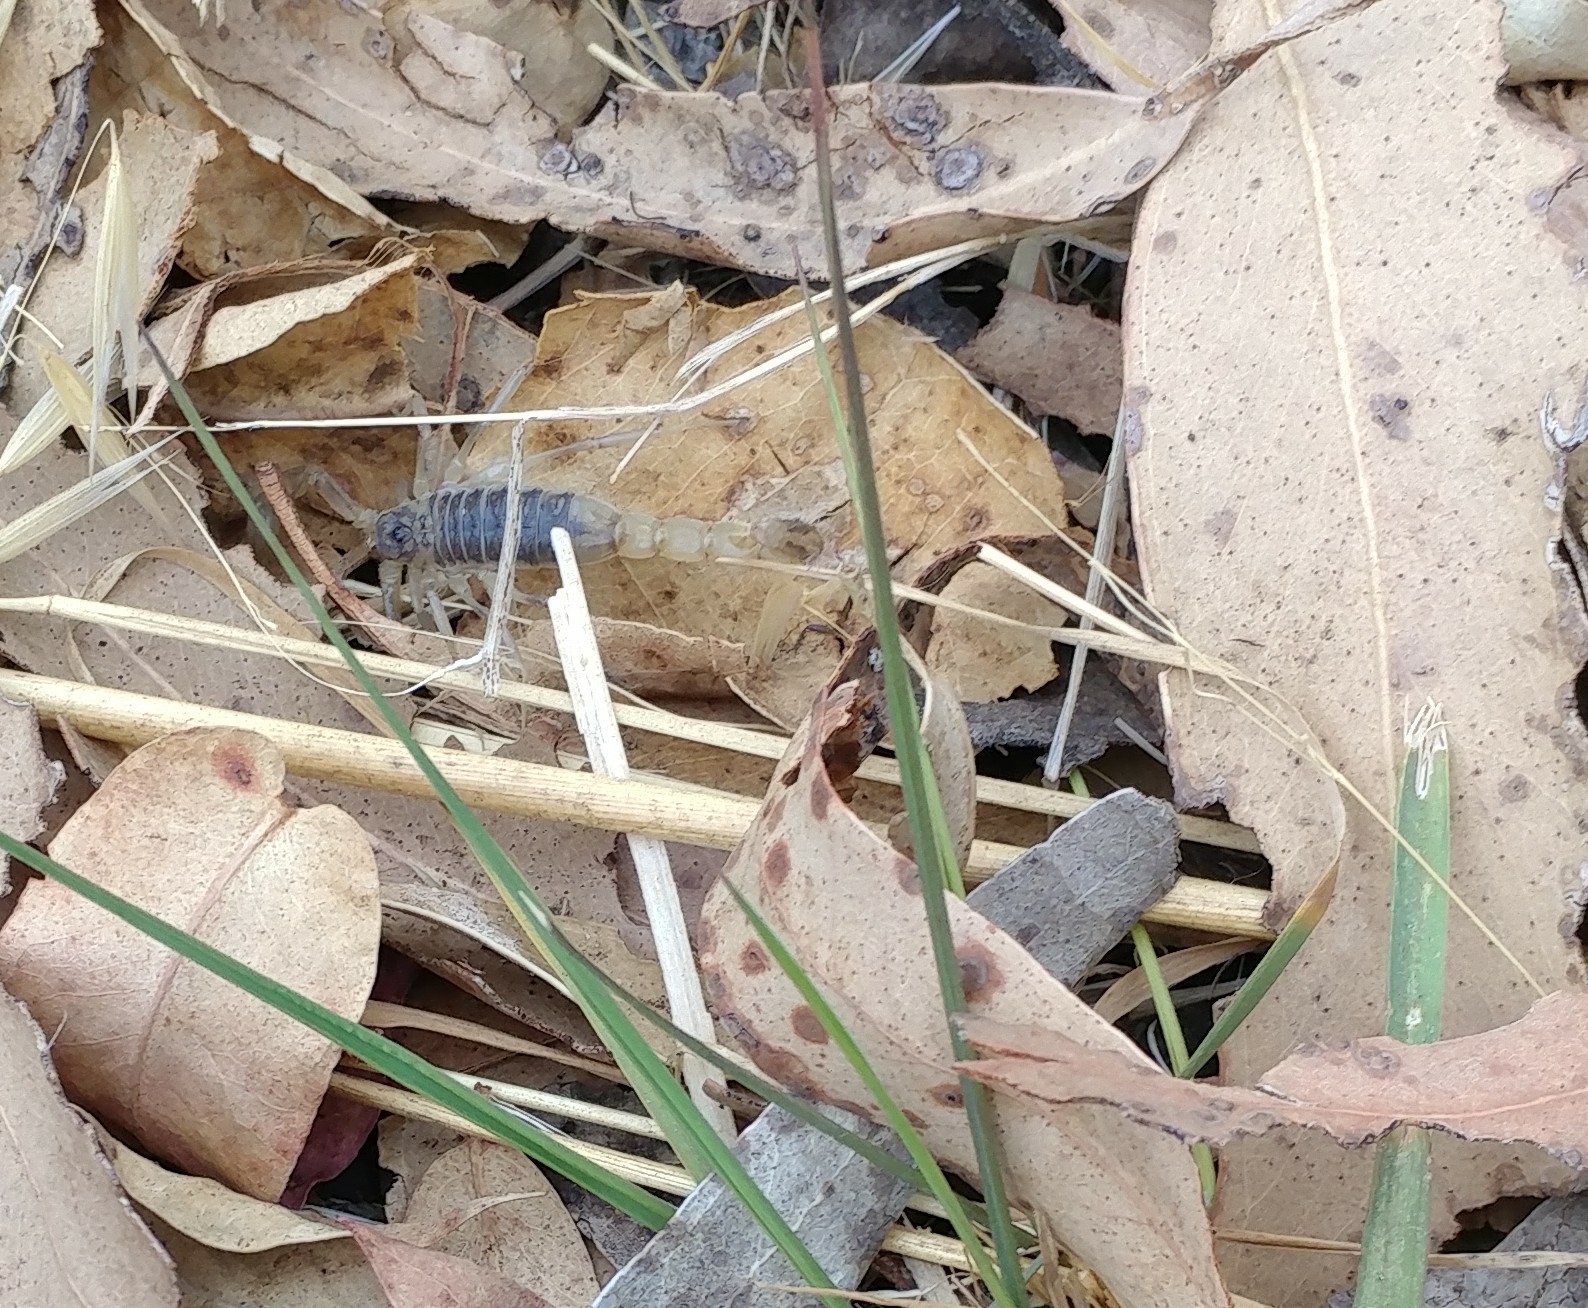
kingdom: Animalia
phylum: Arthropoda
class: Arachnida
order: Scorpiones
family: Vaejovidae
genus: Paruroctonus
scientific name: Paruroctonus silvestrii
